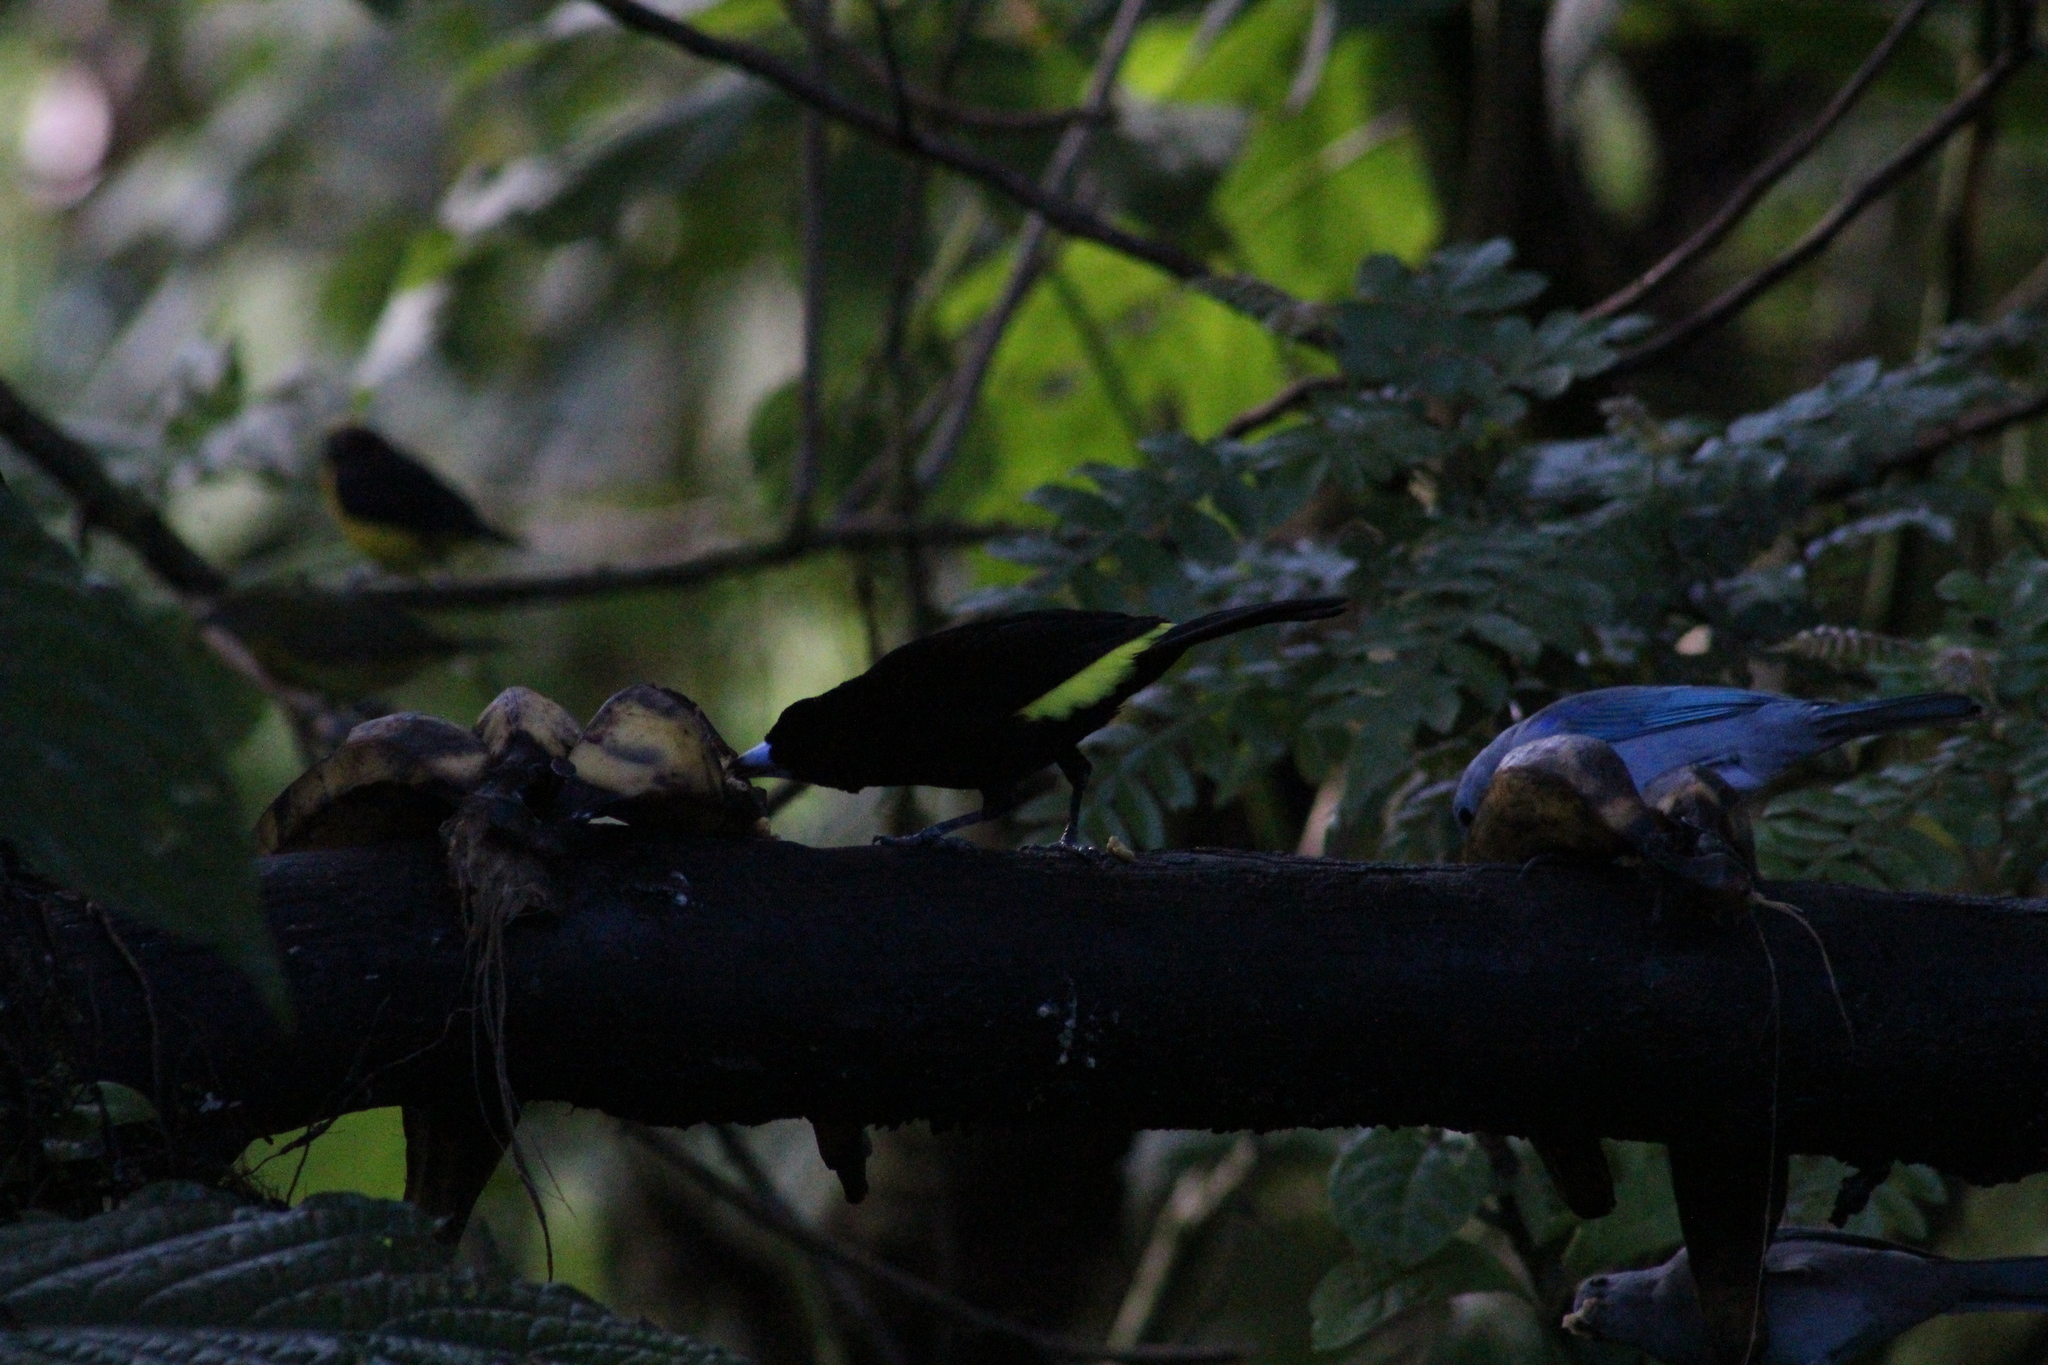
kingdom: Animalia
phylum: Chordata
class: Aves
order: Passeriformes
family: Thraupidae
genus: Ramphocelus
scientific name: Ramphocelus icteronotus
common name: Lemon-rumped tanager
